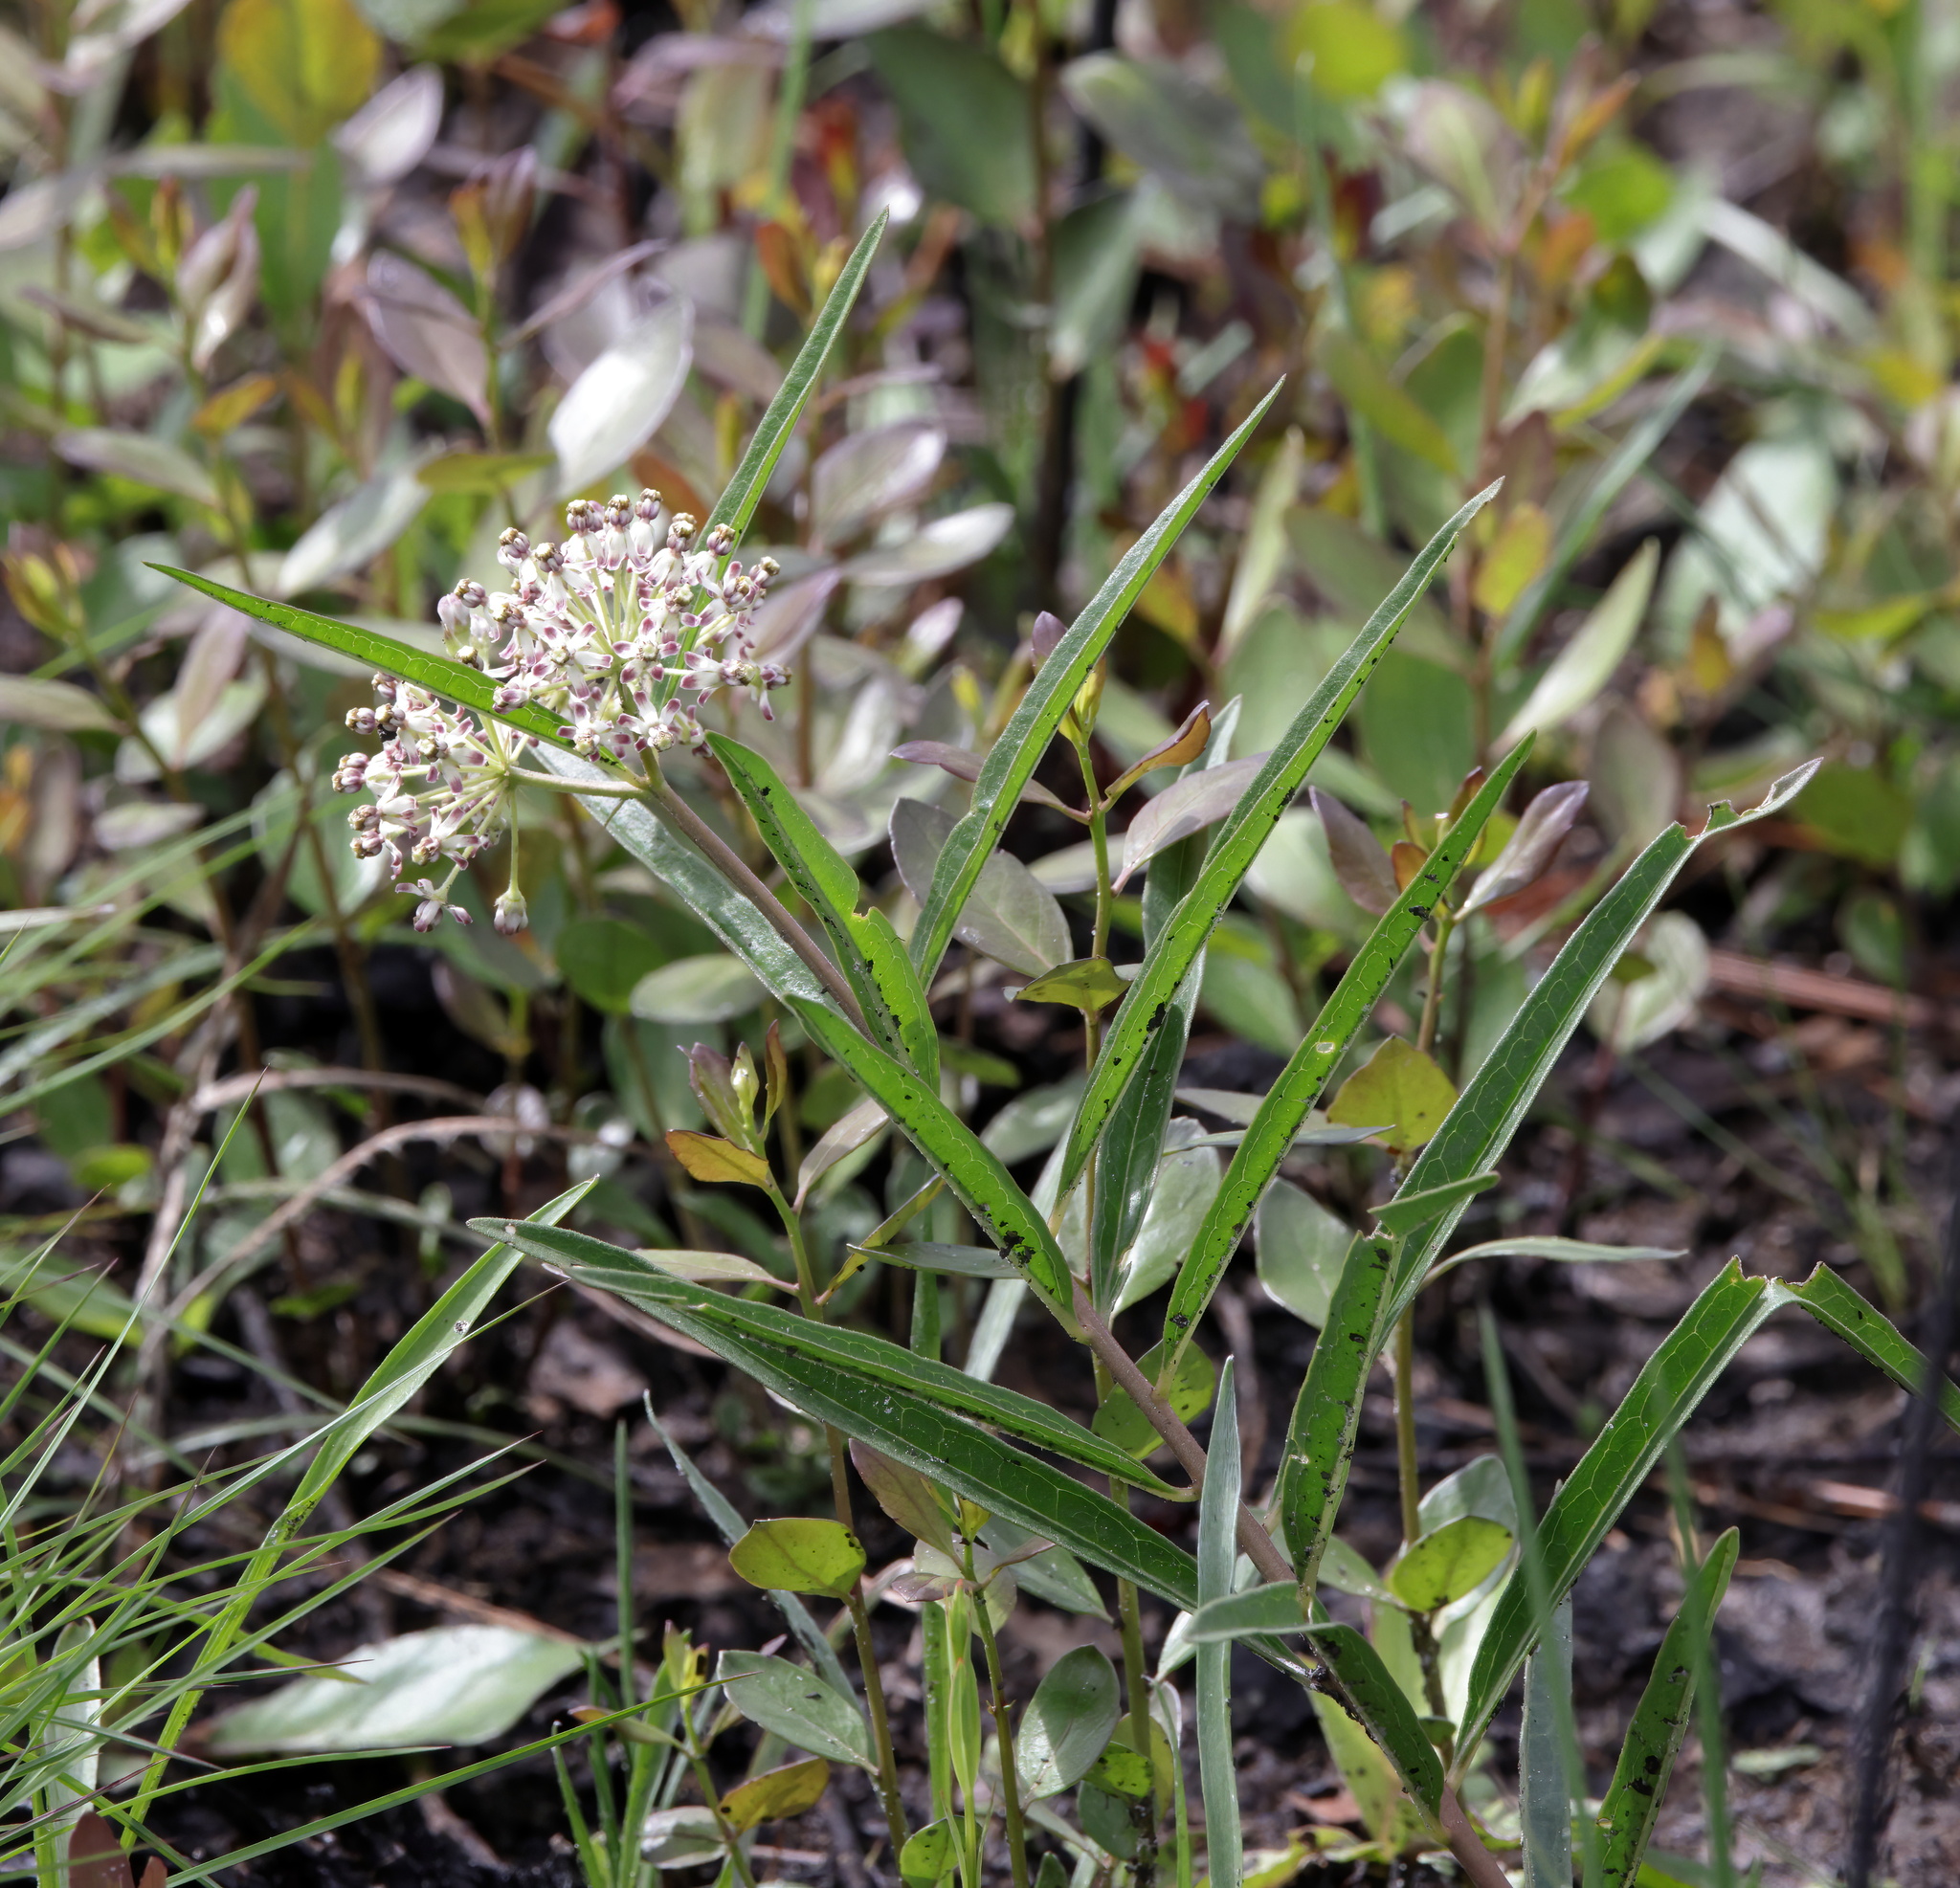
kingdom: Plantae
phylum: Tracheophyta
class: Magnoliopsida
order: Gentianales
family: Apocynaceae
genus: Asclepias
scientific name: Asclepias longifolia
